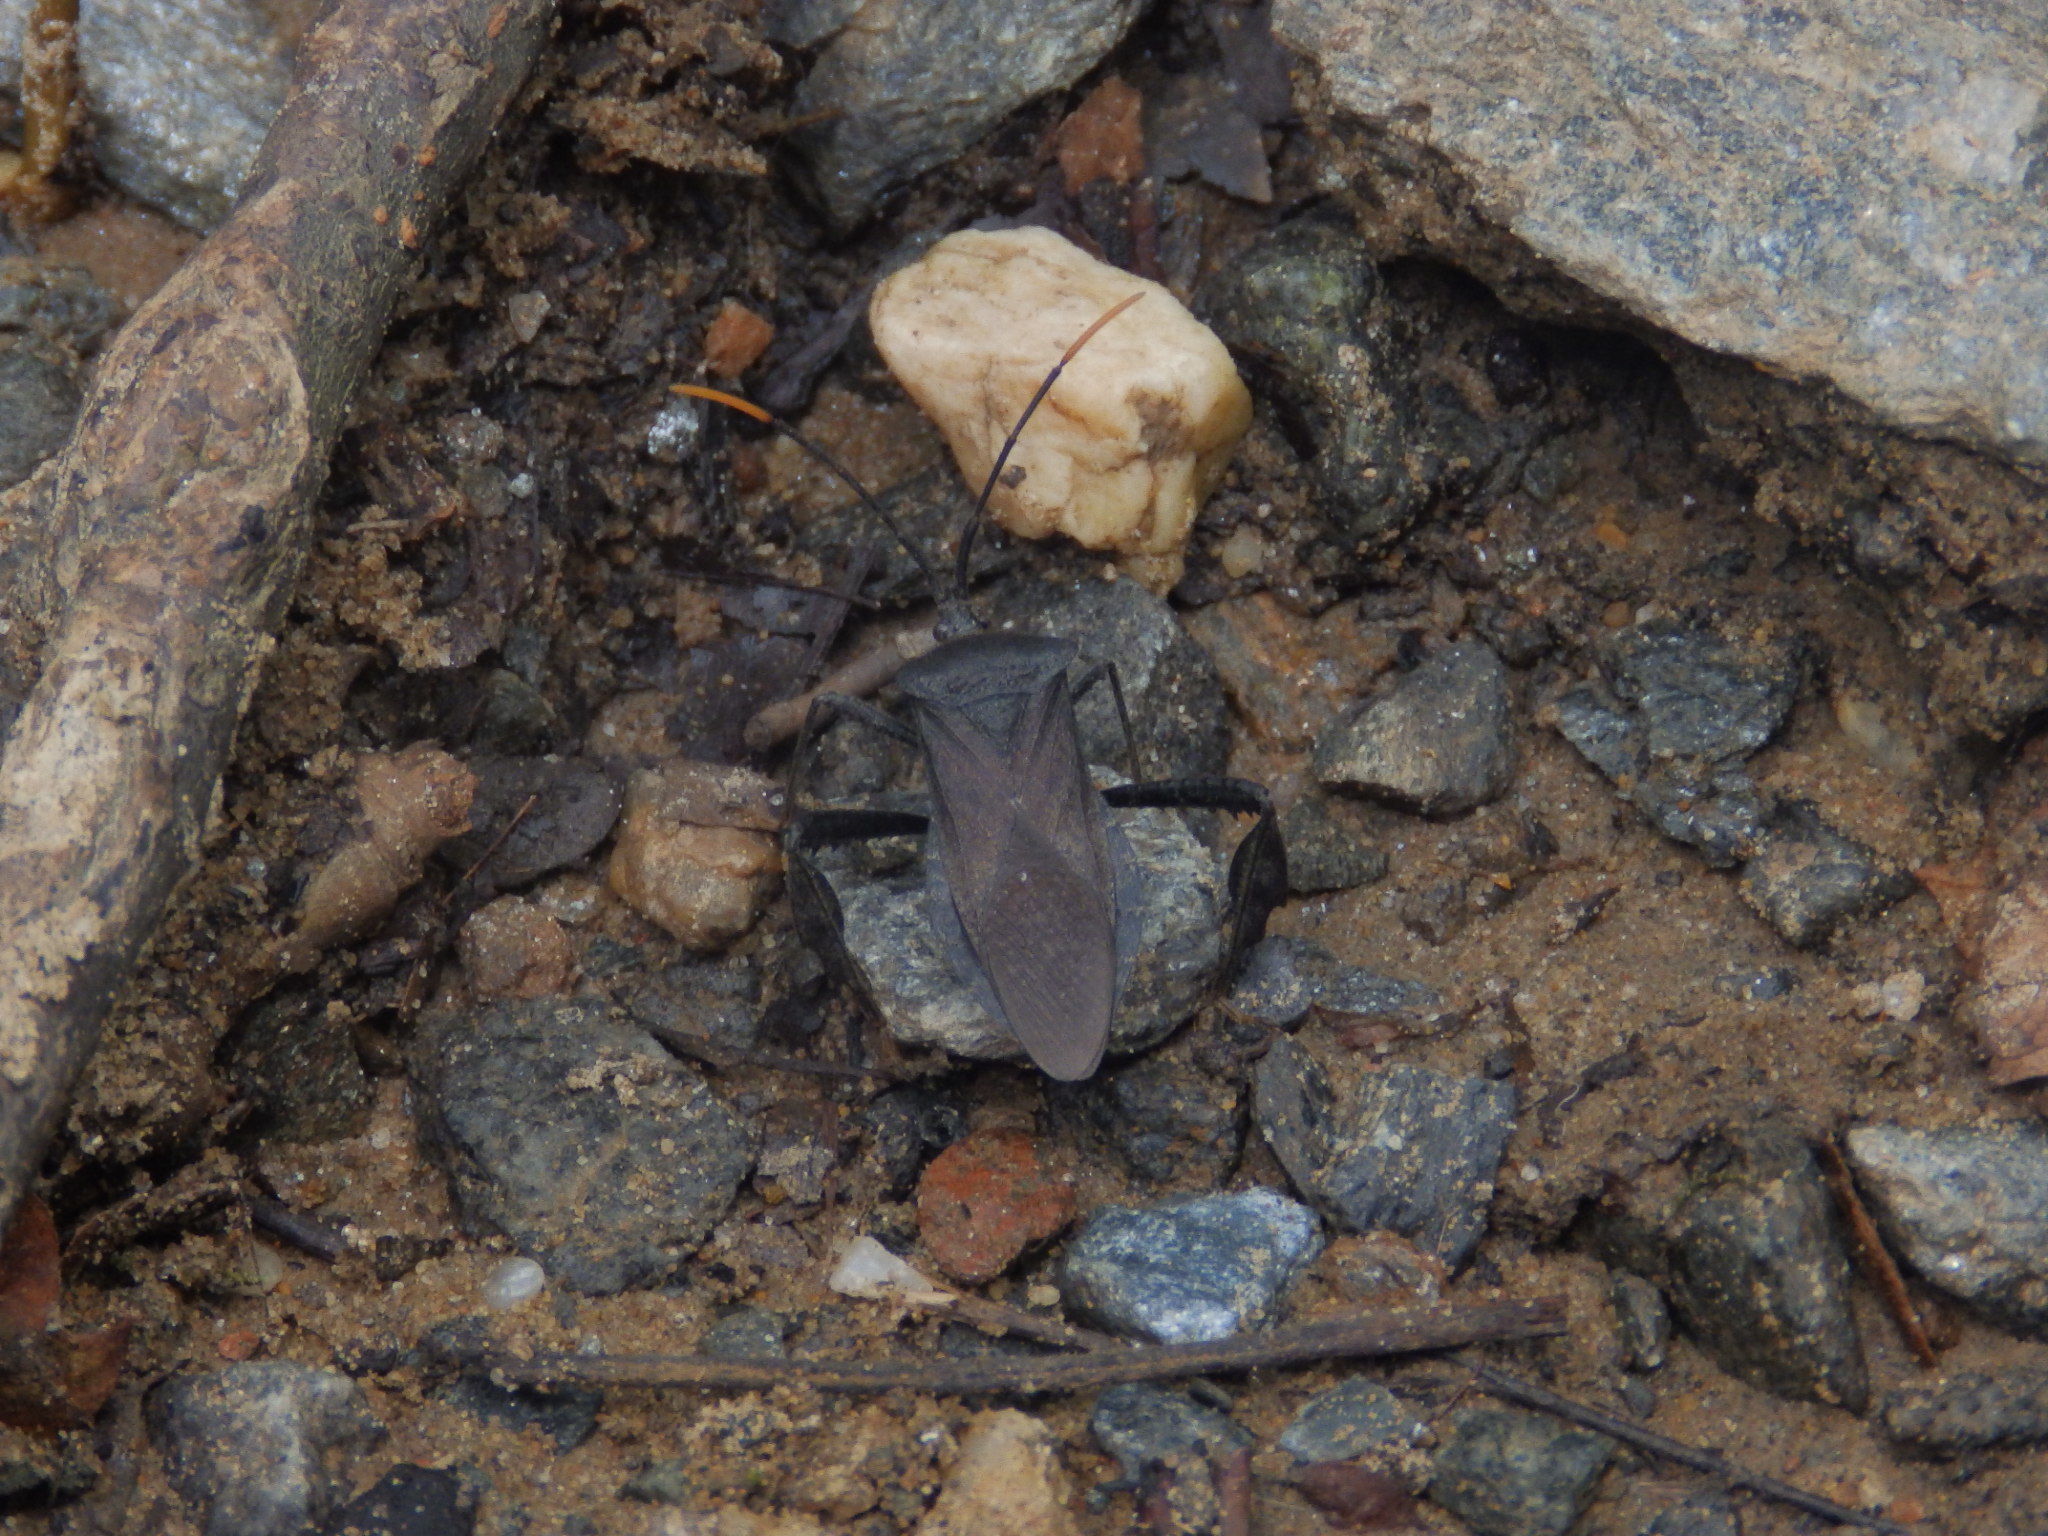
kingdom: Animalia
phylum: Arthropoda
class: Insecta
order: Hemiptera
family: Coreidae
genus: Acanthocephala
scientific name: Acanthocephala terminalis
